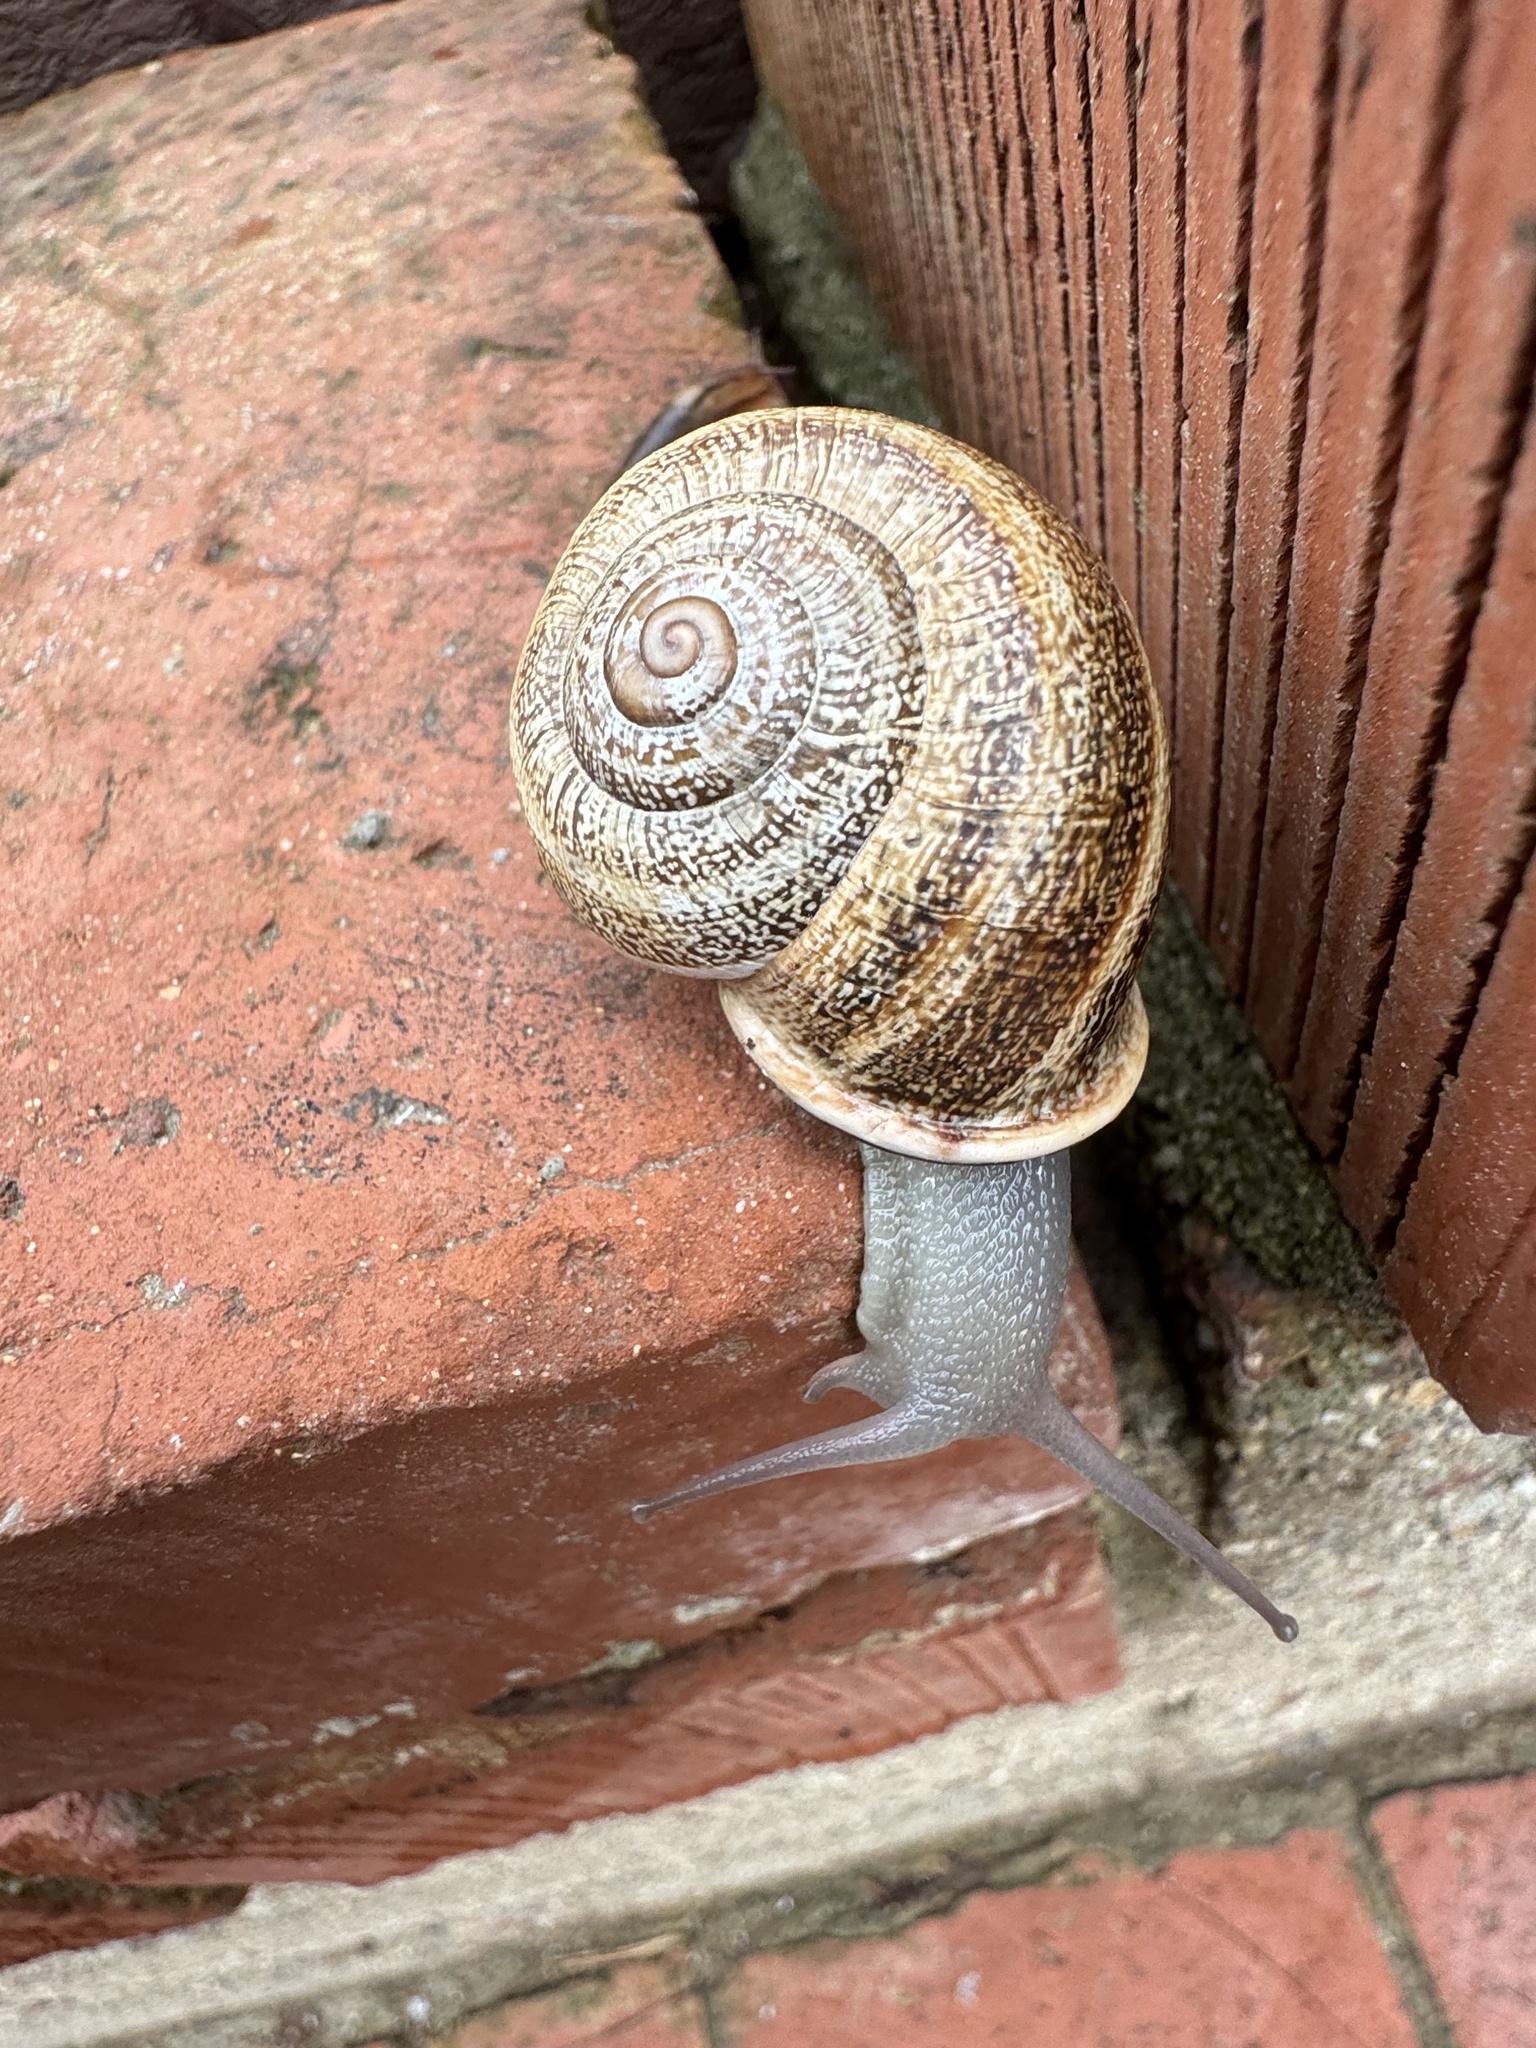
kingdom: Animalia
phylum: Mollusca
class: Gastropoda
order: Stylommatophora
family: Helicidae
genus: Otala
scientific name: Otala lactea
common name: Milk snail
